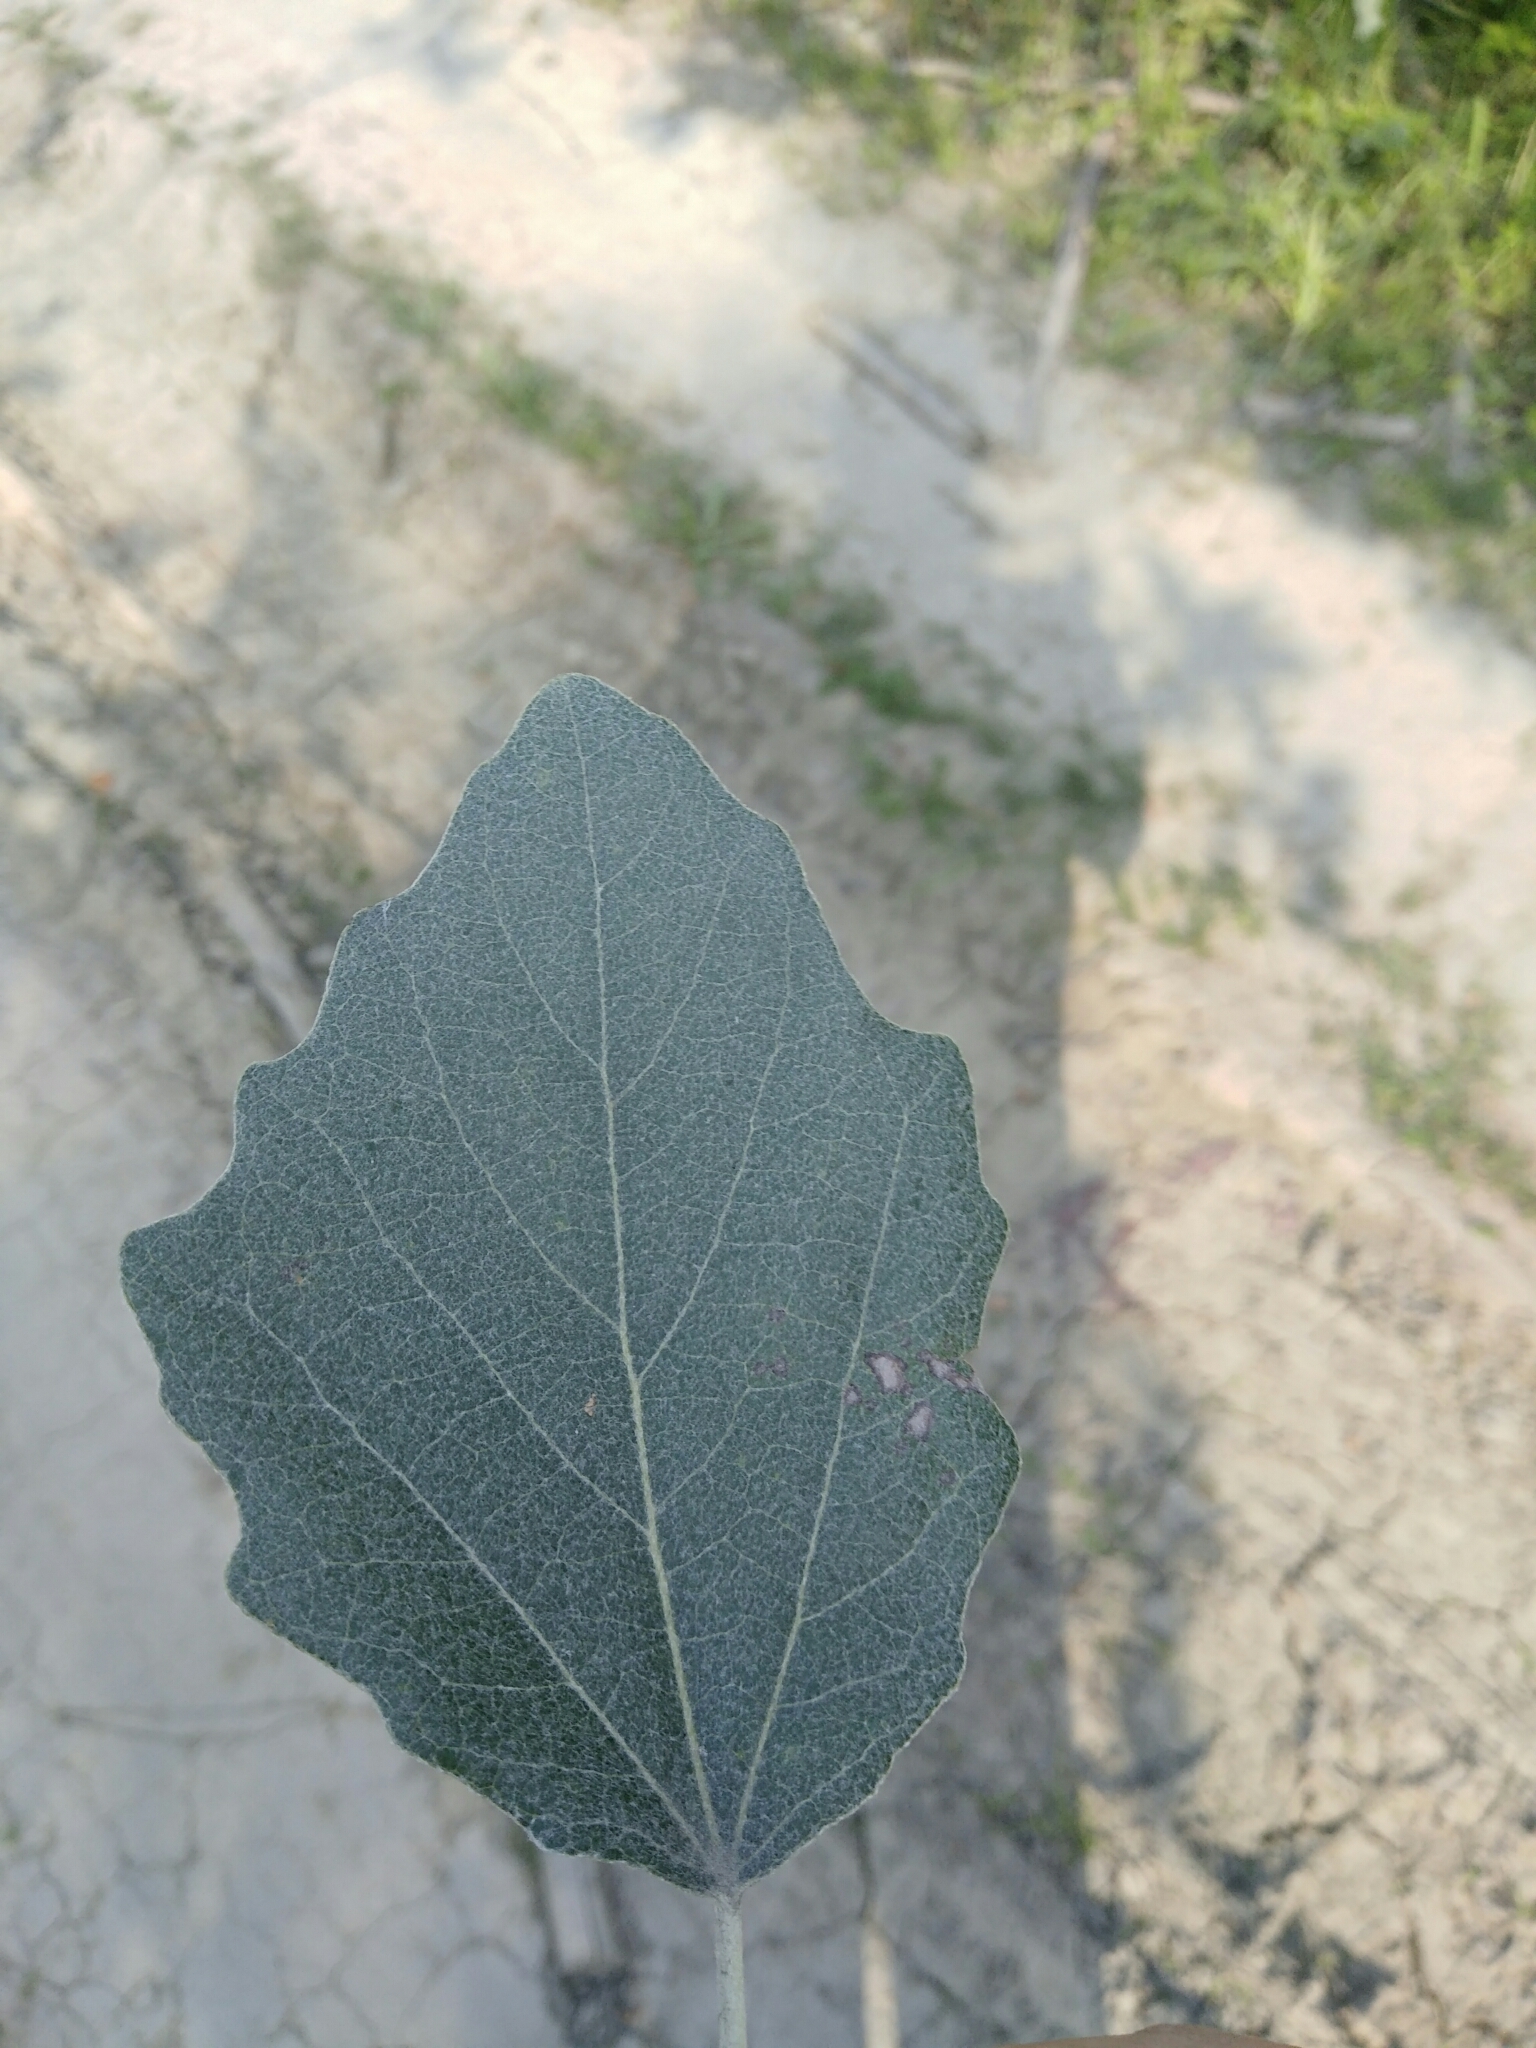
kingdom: Plantae
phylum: Tracheophyta
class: Magnoliopsida
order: Malpighiales
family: Salicaceae
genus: Populus
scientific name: Populus alba
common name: White poplar
